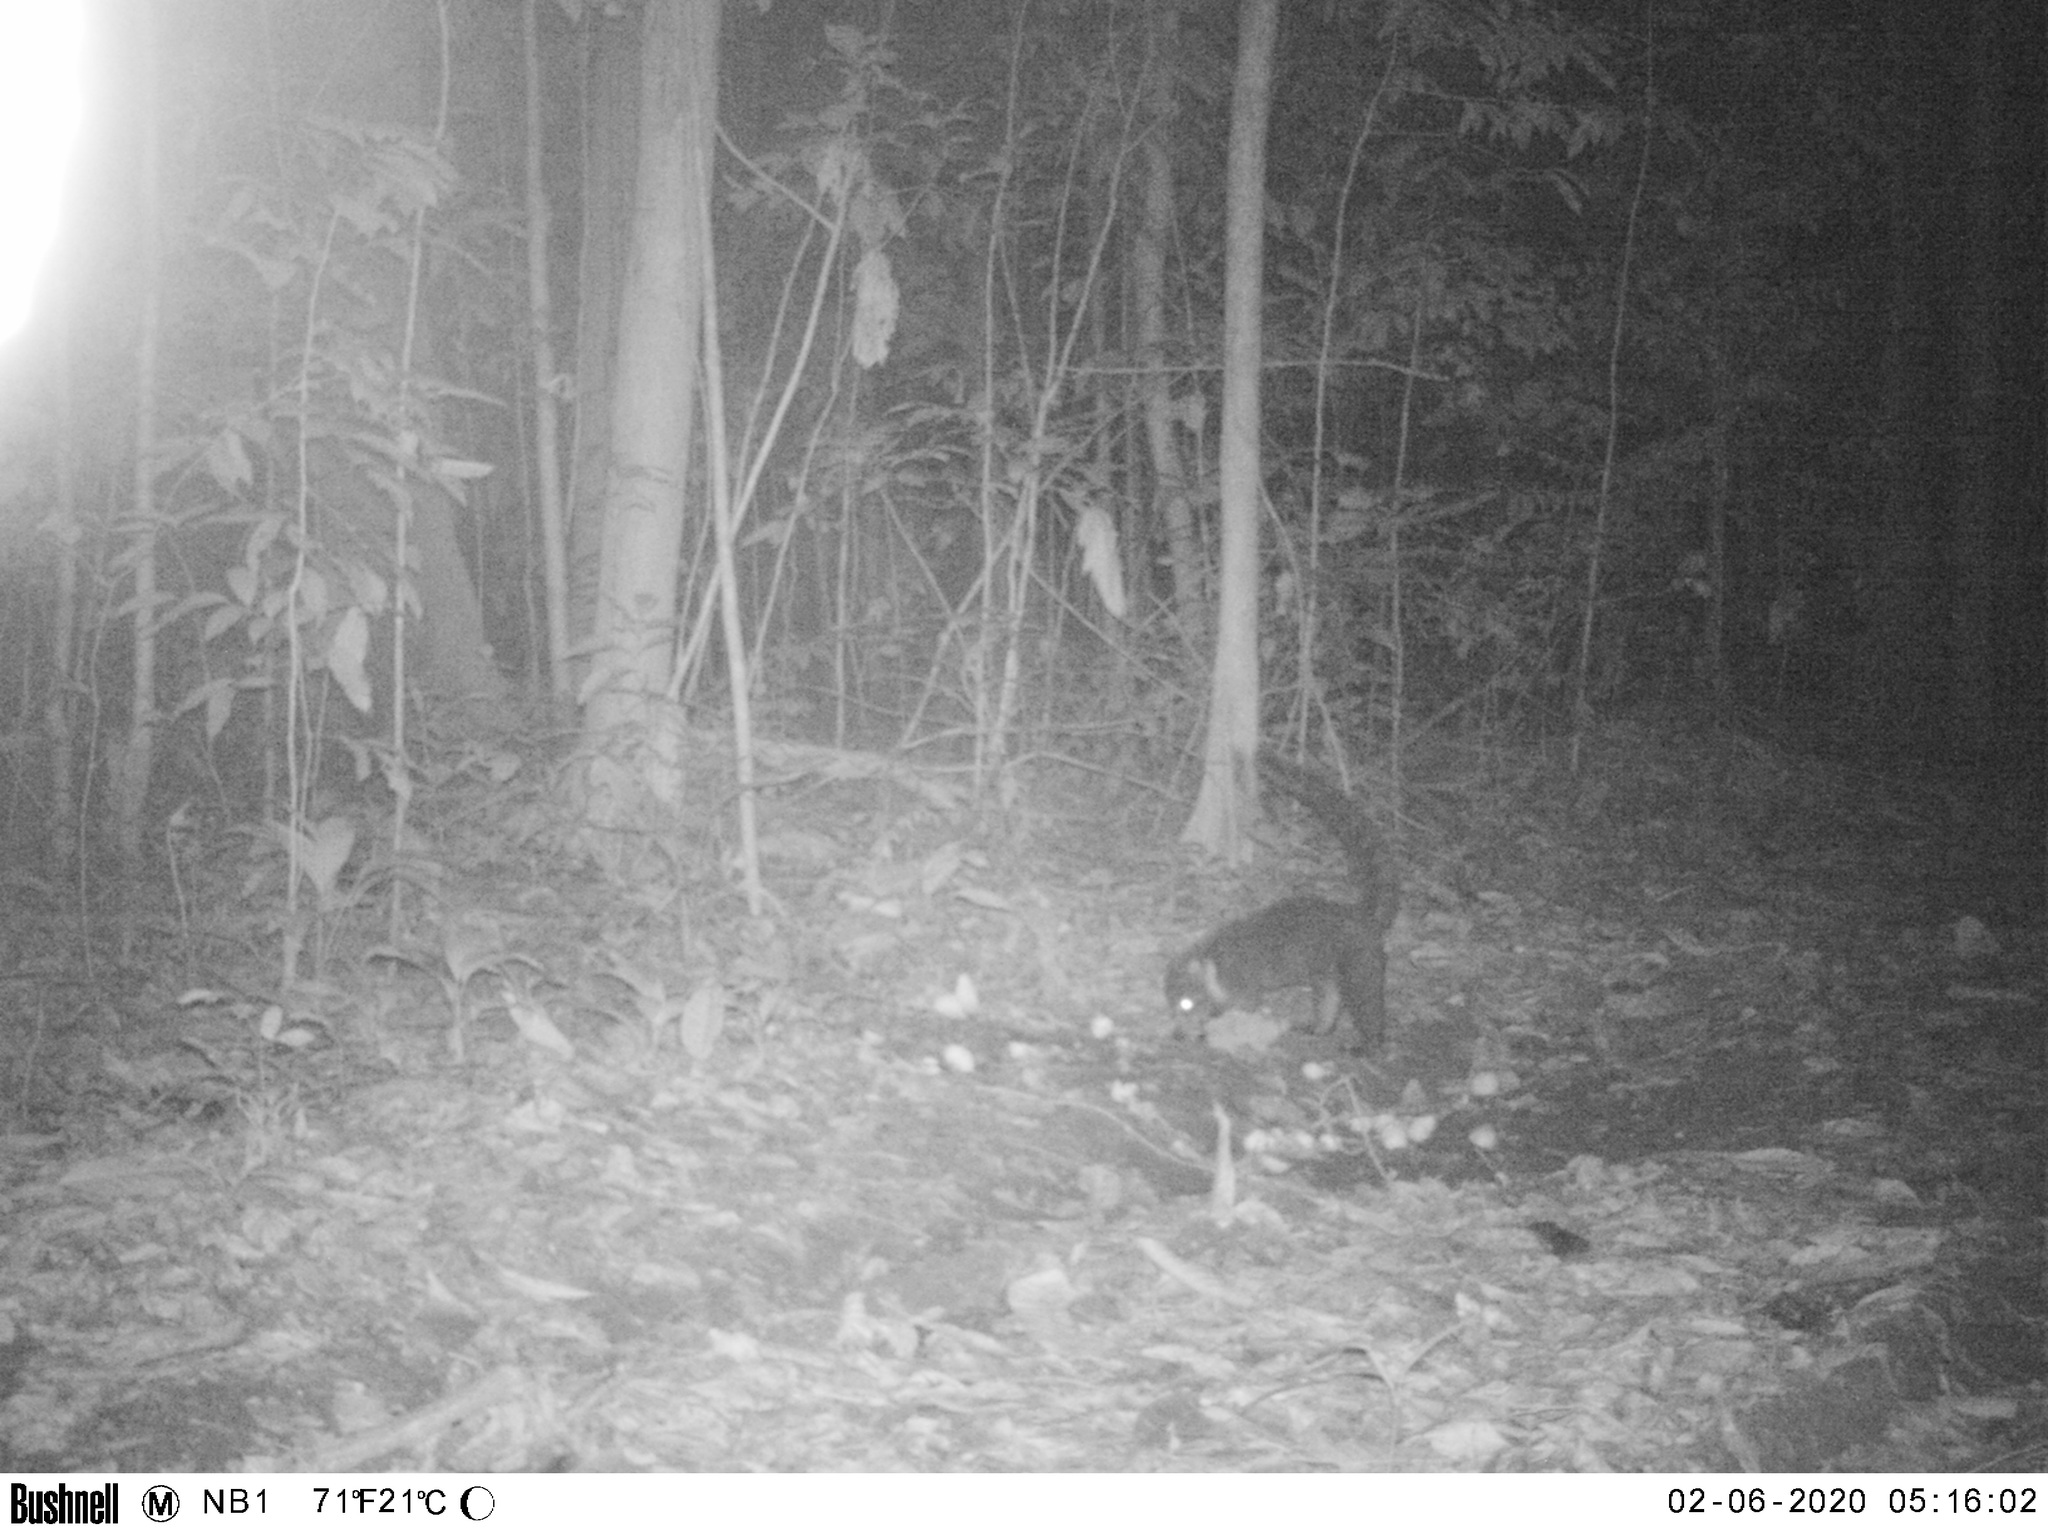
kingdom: Animalia
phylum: Chordata
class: Mammalia
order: Carnivora
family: Procyonidae
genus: Nasua
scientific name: Nasua narica
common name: White-nosed coati
